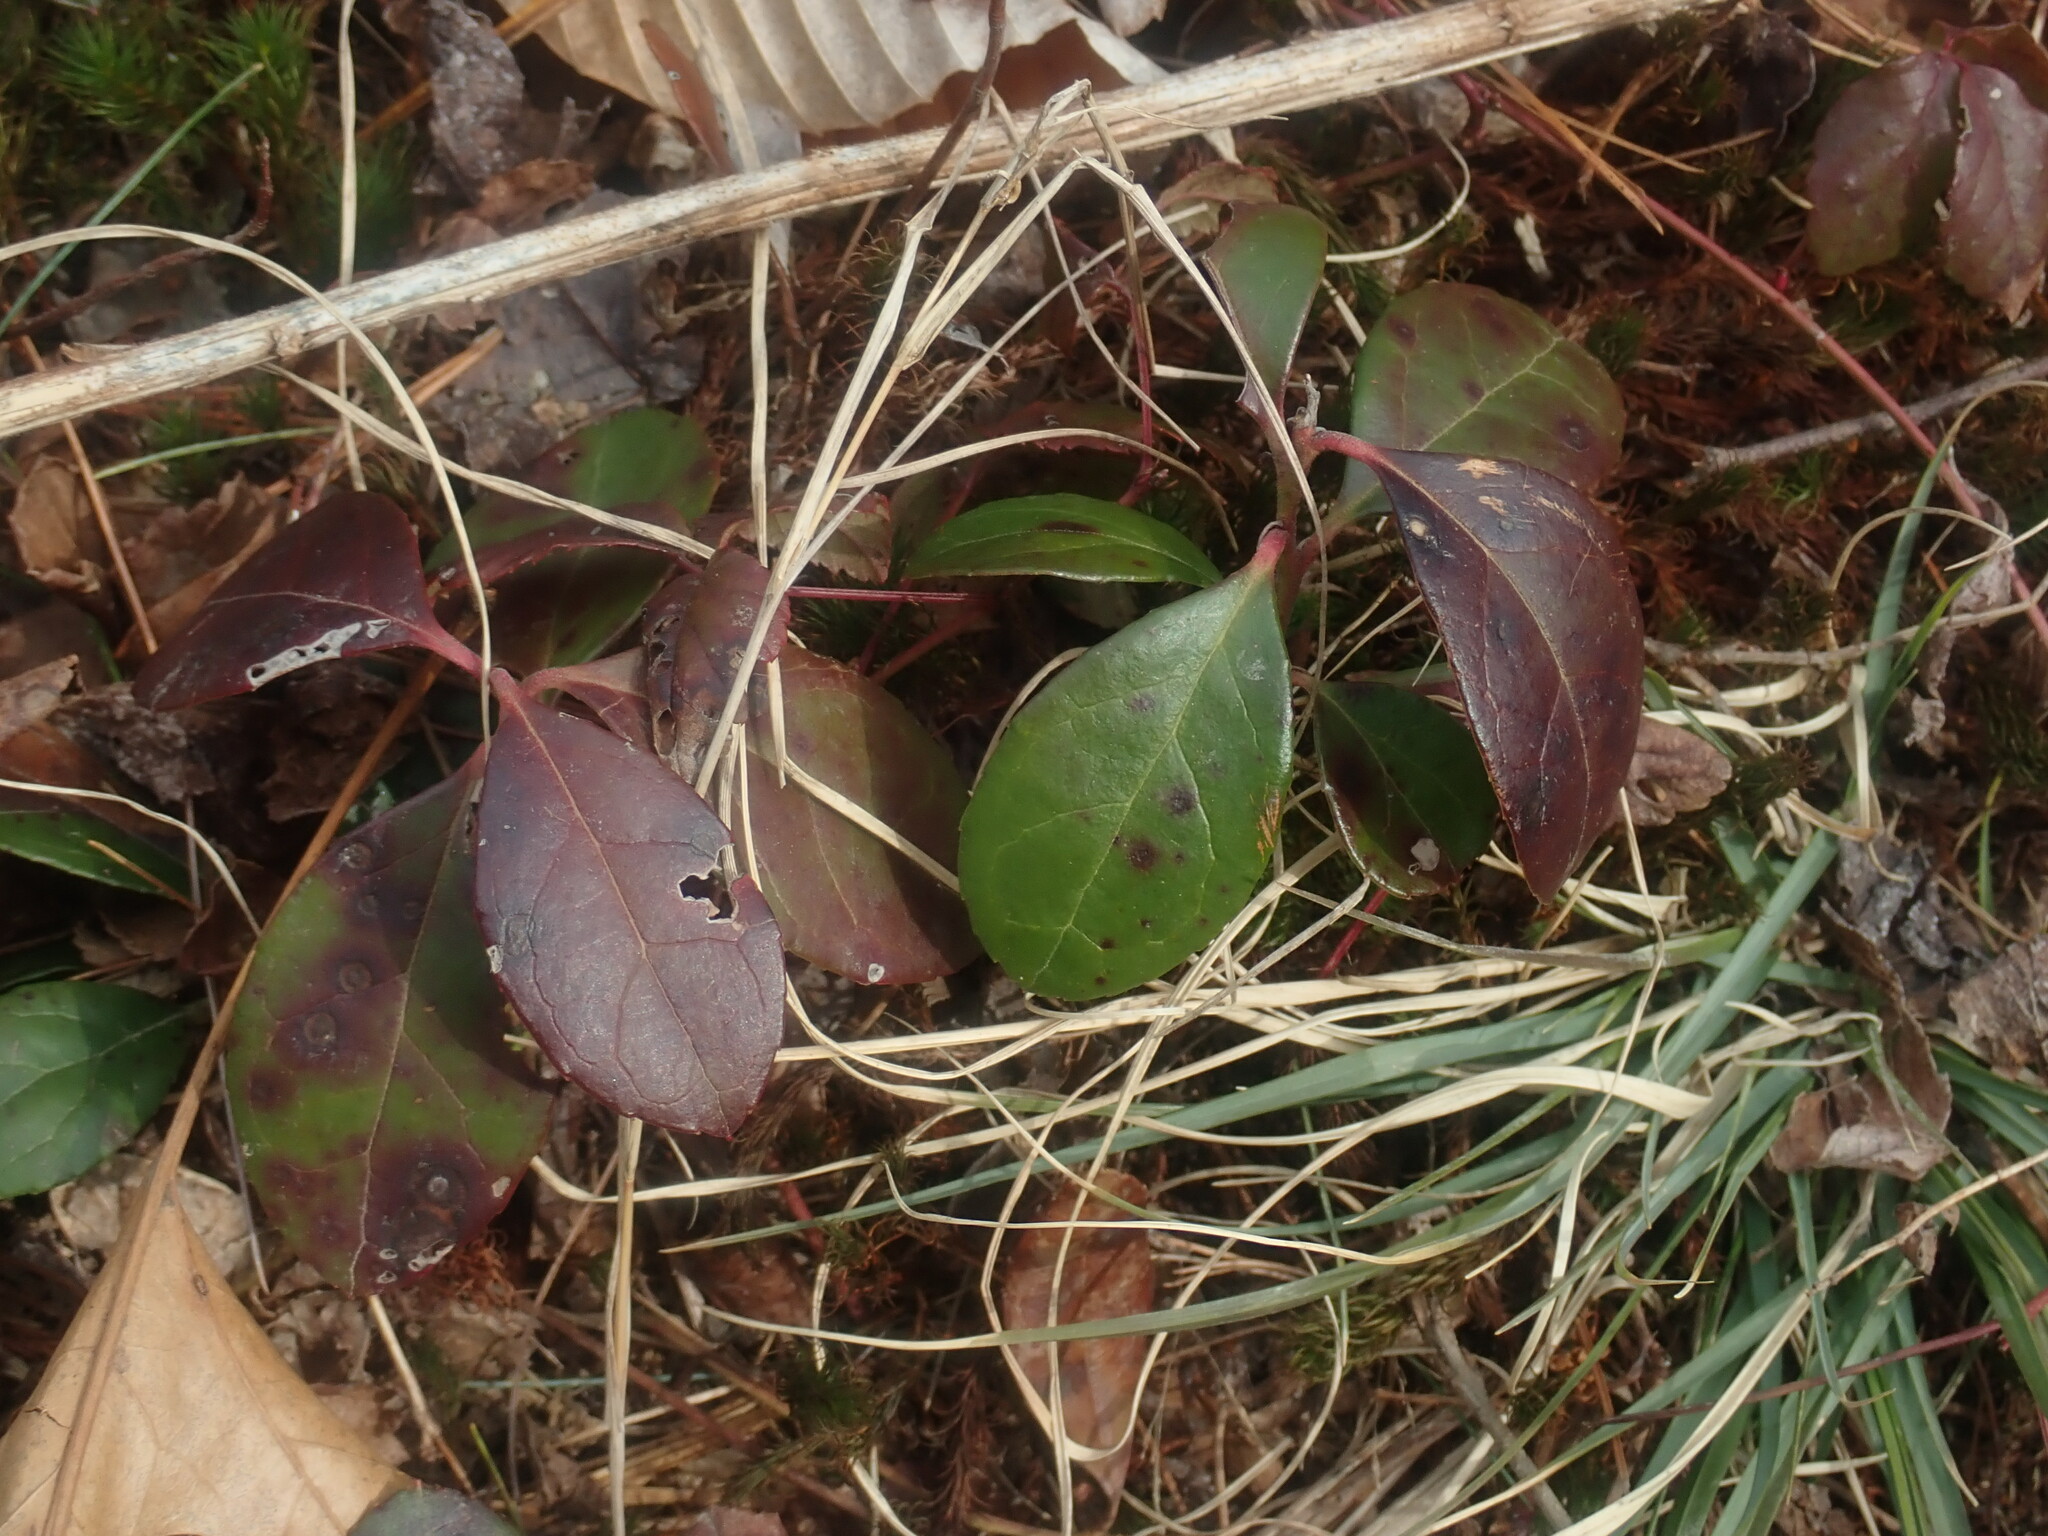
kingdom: Plantae
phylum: Tracheophyta
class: Magnoliopsida
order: Ericales
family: Ericaceae
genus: Gaultheria
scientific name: Gaultheria procumbens
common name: Checkerberry
